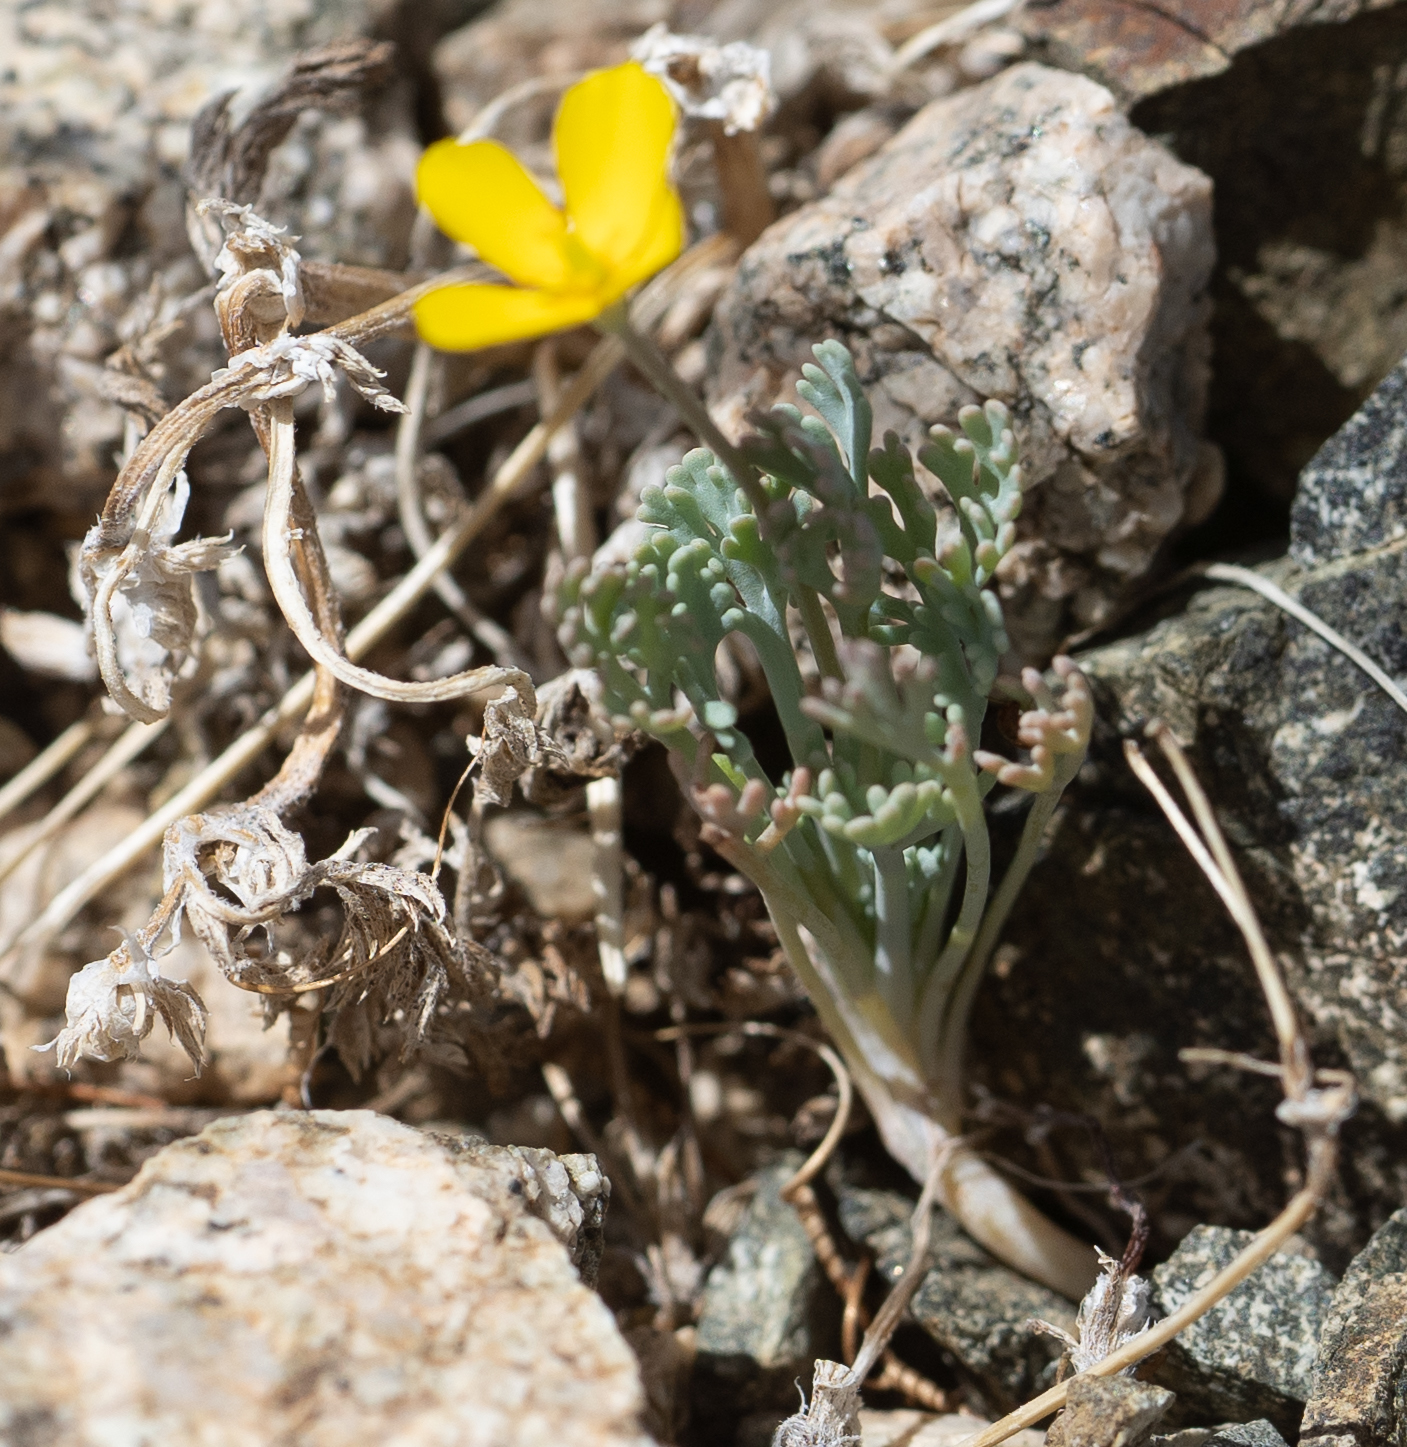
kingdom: Plantae
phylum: Tracheophyta
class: Magnoliopsida
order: Ranunculales
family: Papaveraceae
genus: Eschscholzia
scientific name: Eschscholzia minutiflora
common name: Small-flower california-poppy
